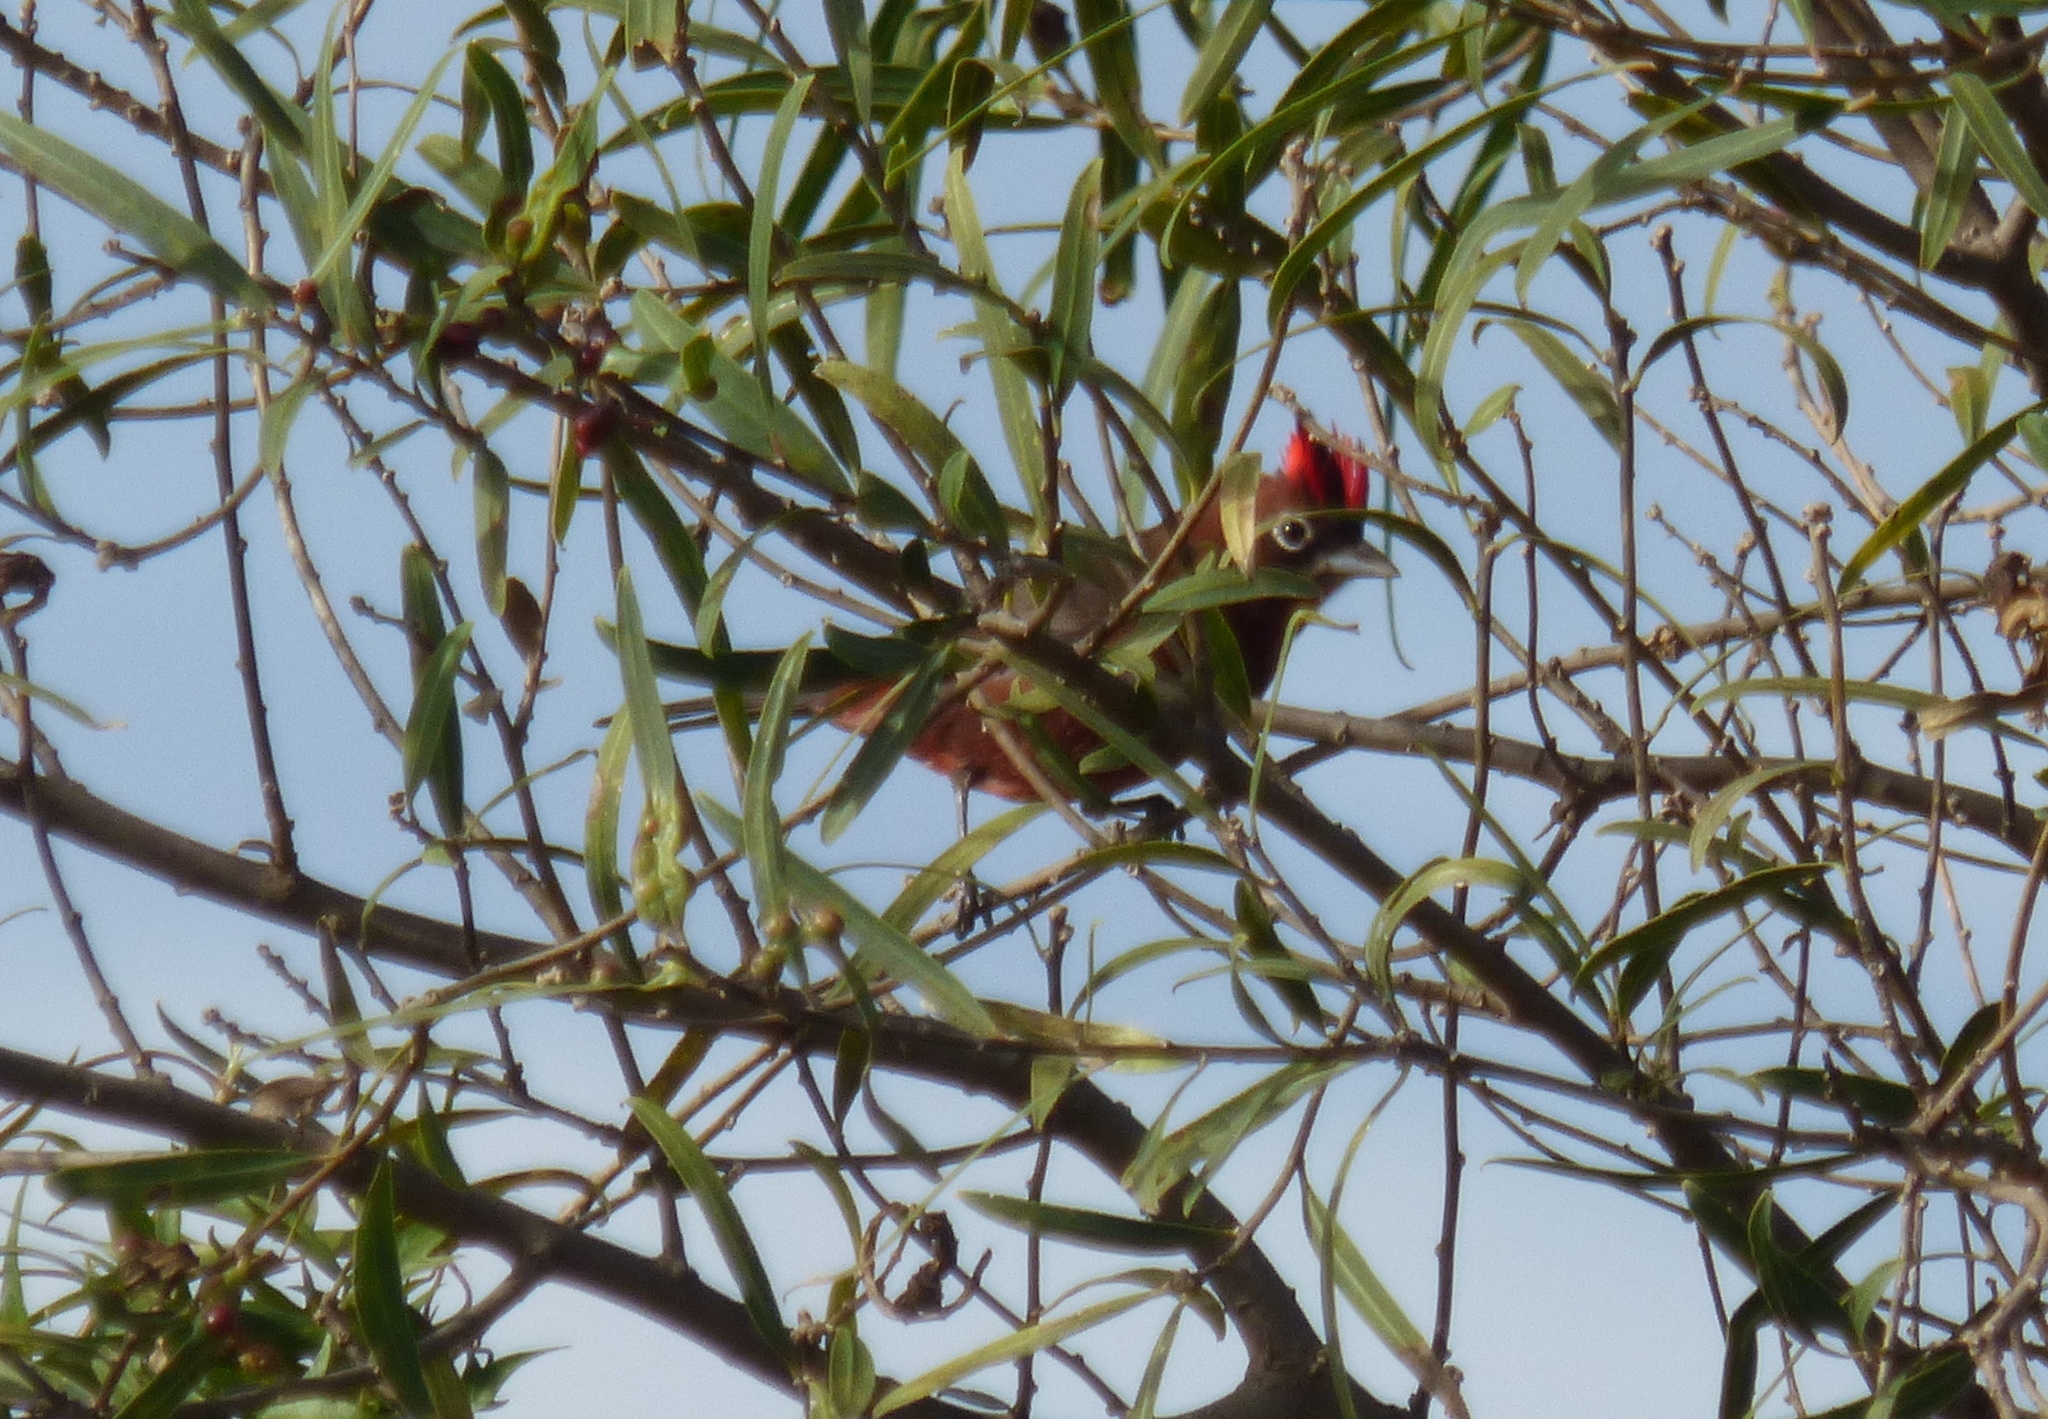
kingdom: Animalia
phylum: Chordata
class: Aves
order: Passeriformes
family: Thraupidae
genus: Coryphospingus
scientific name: Coryphospingus cucullatus
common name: Red pileated finch
